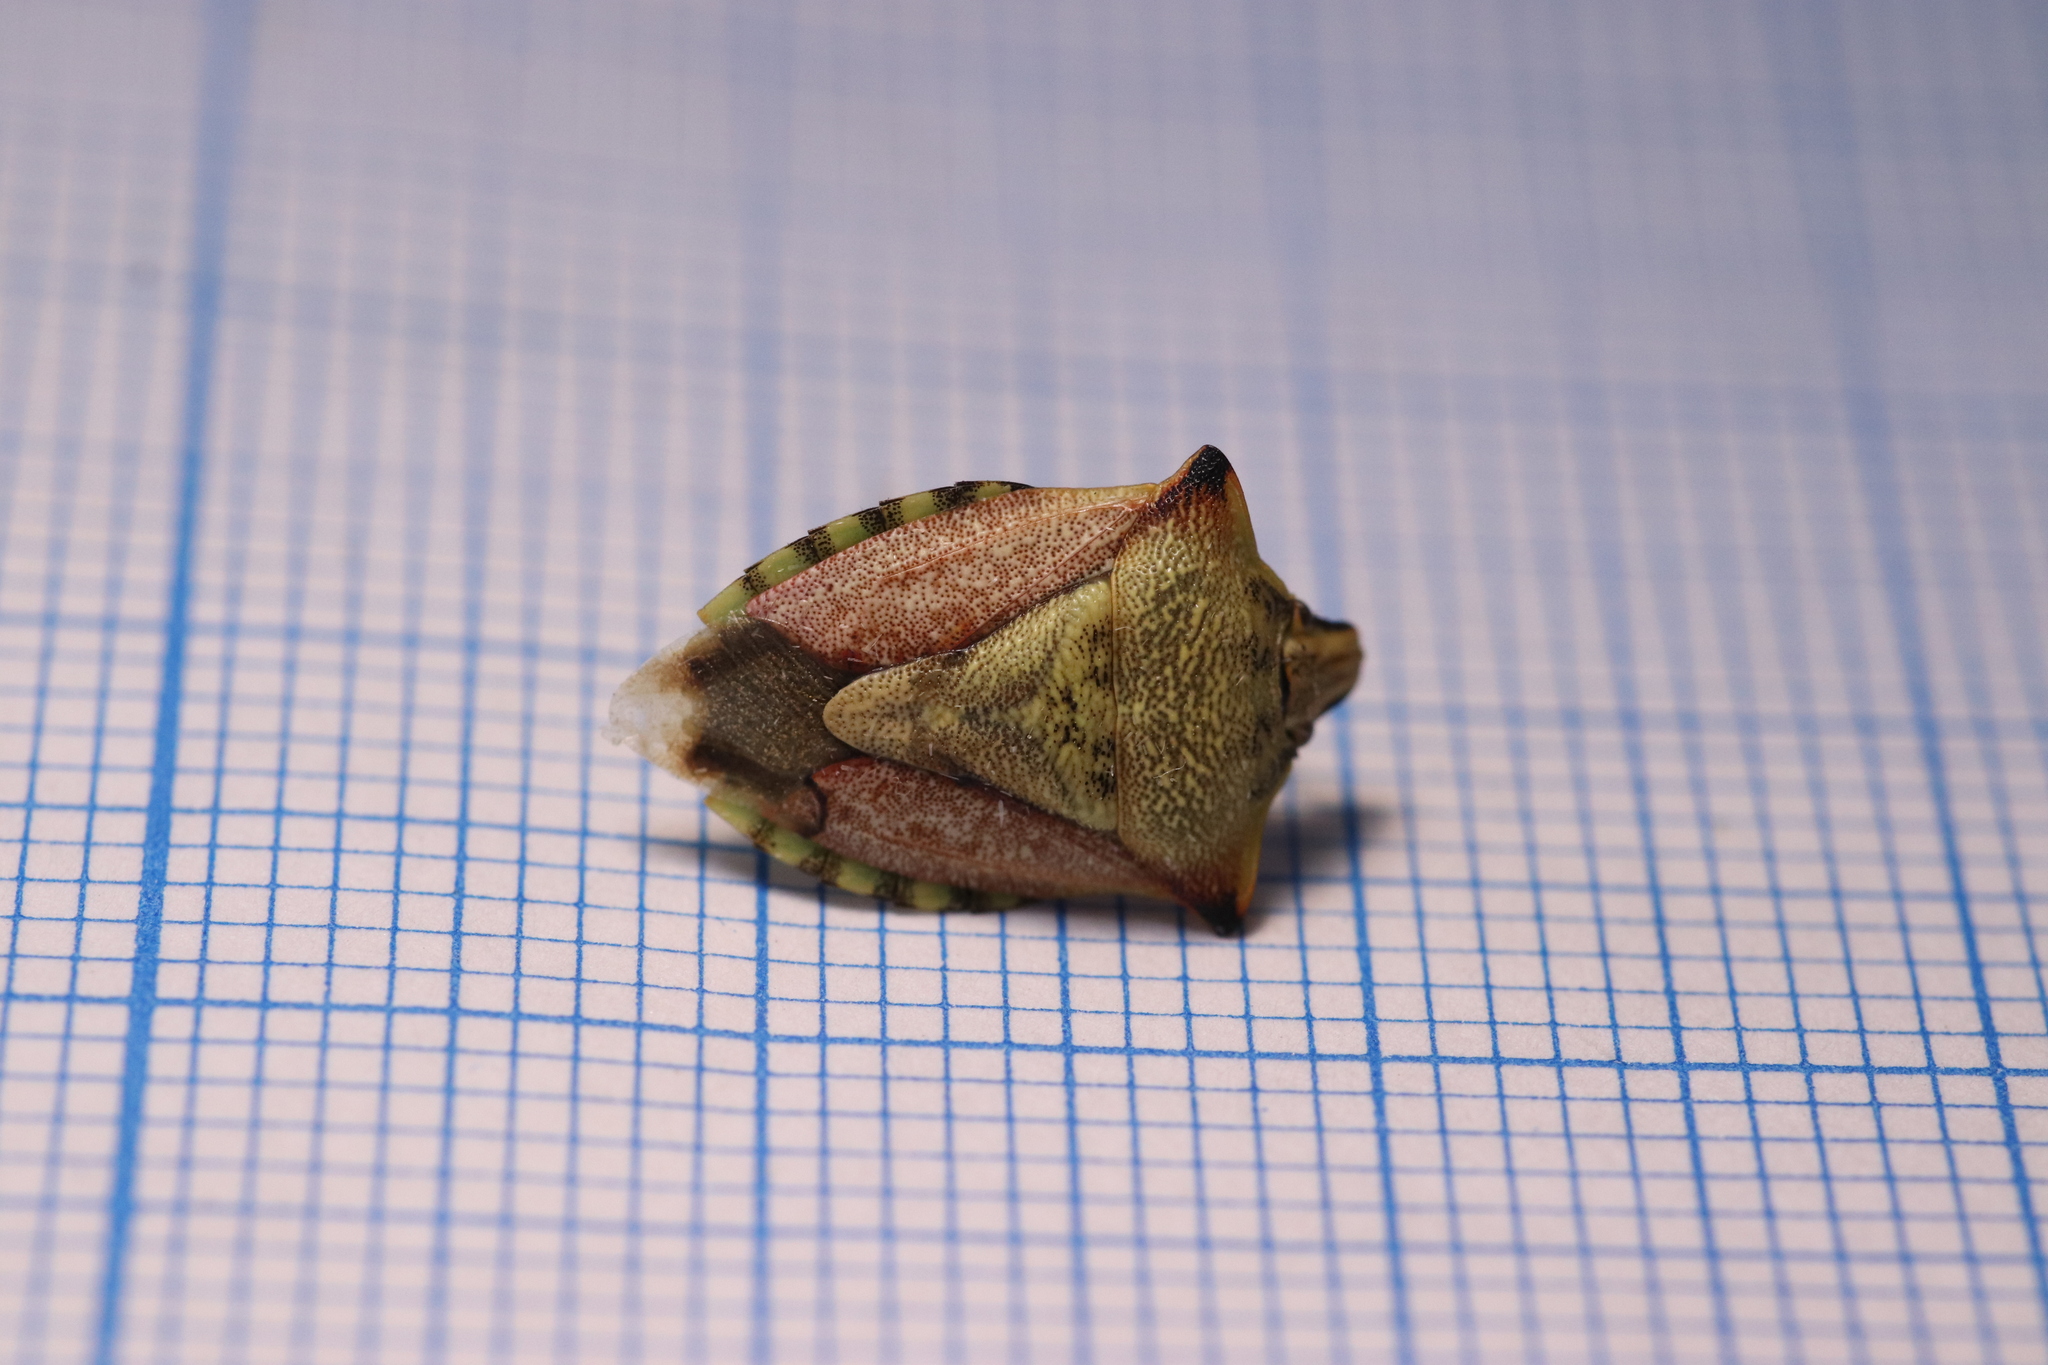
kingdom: Animalia
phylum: Arthropoda
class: Insecta
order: Hemiptera
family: Pentatomidae
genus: Carpocoris
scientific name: Carpocoris mediterraneus
